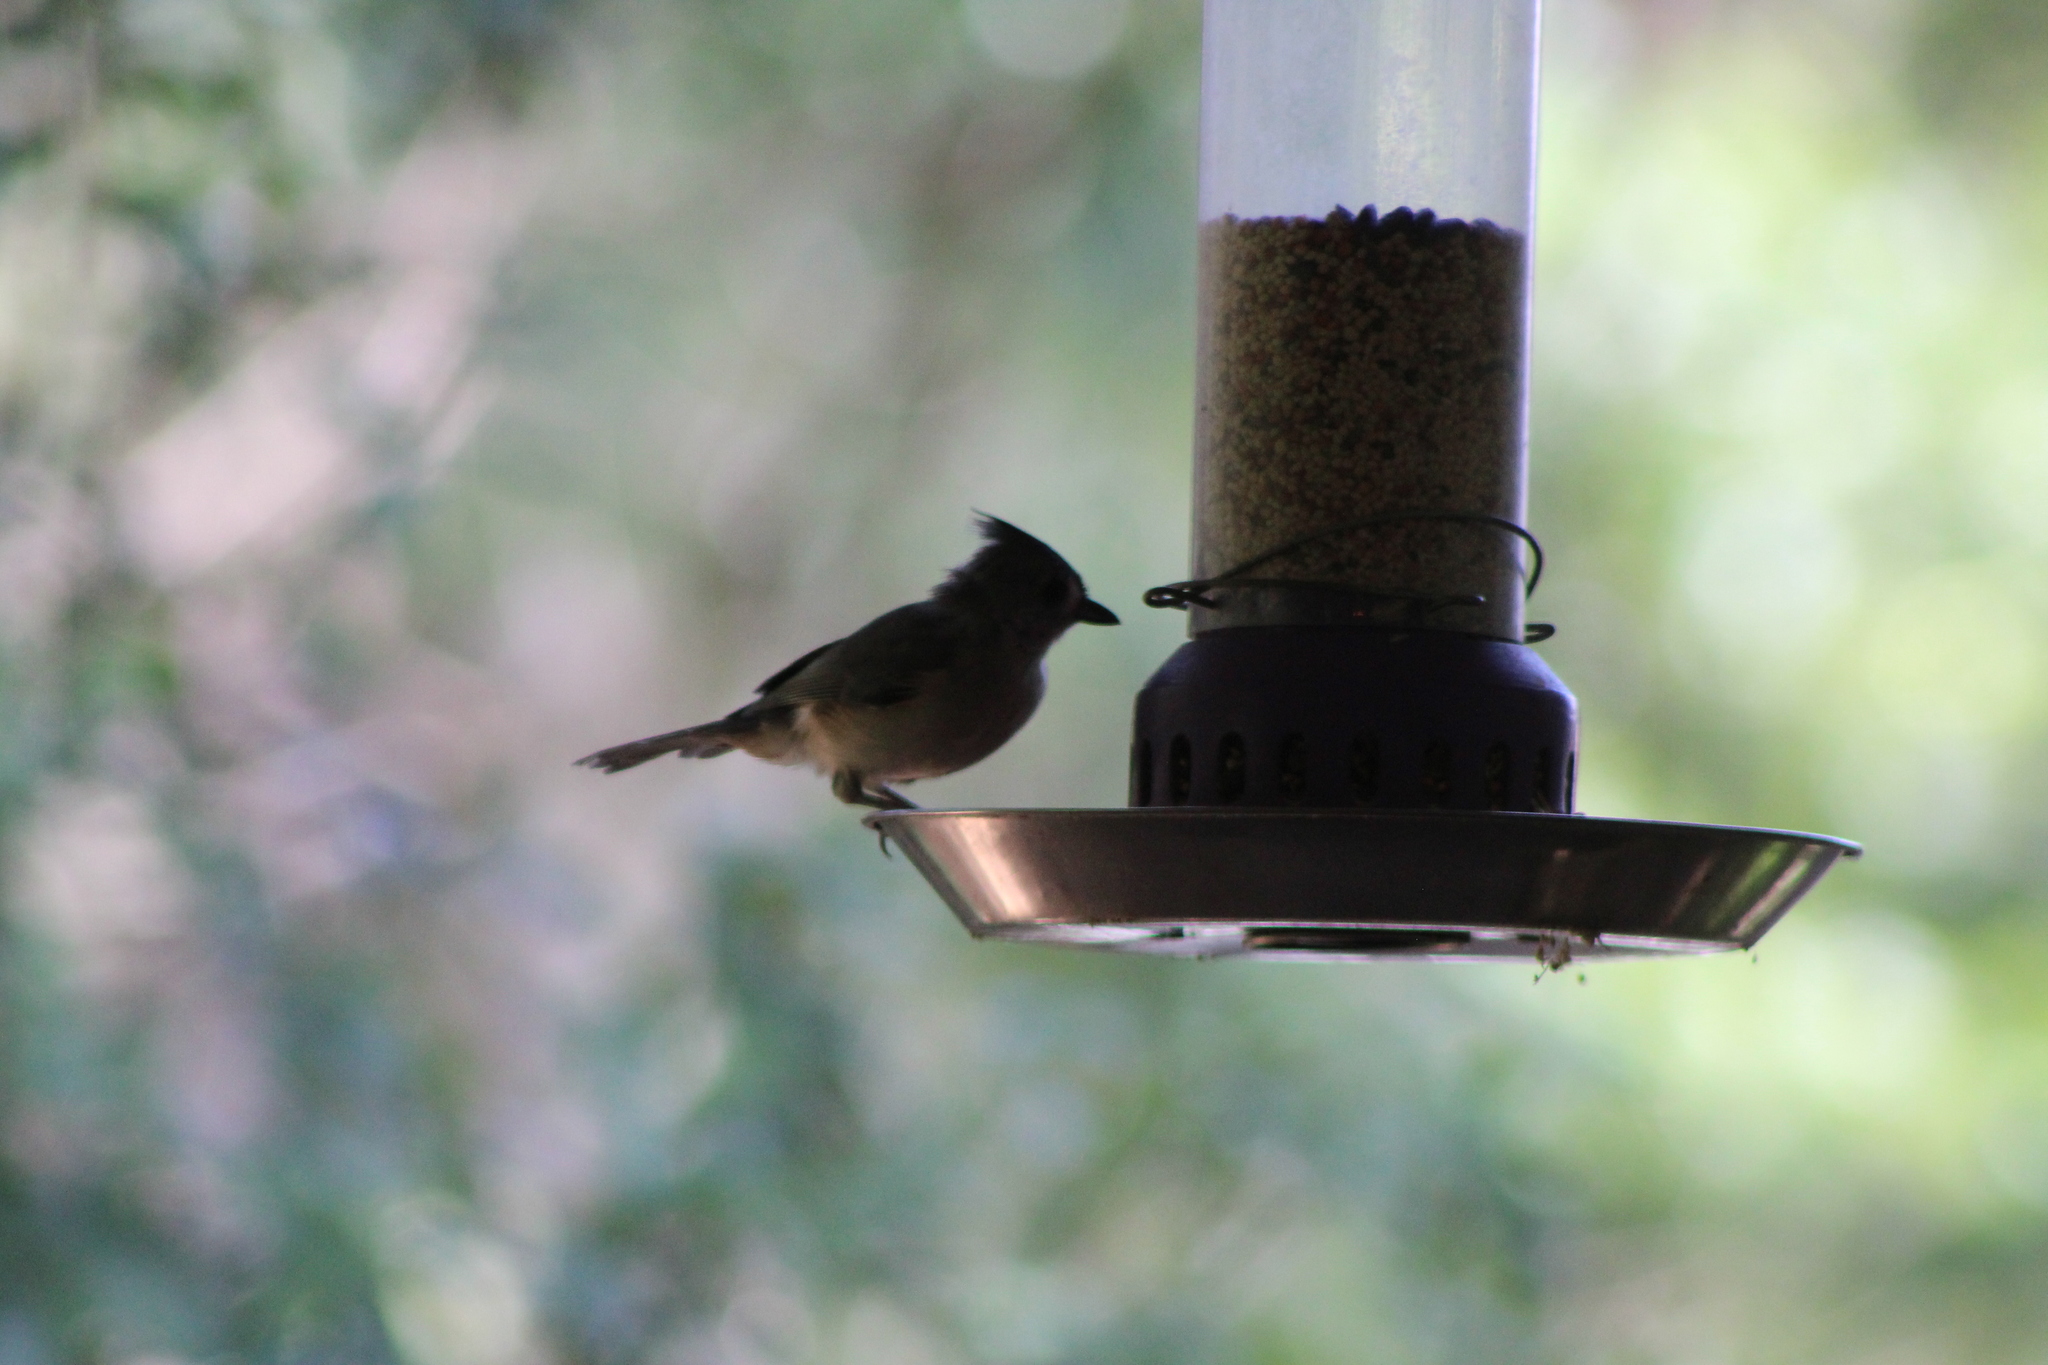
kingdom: Animalia
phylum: Chordata
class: Aves
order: Passeriformes
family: Paridae
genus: Baeolophus
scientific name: Baeolophus bicolor
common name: Tufted titmouse
